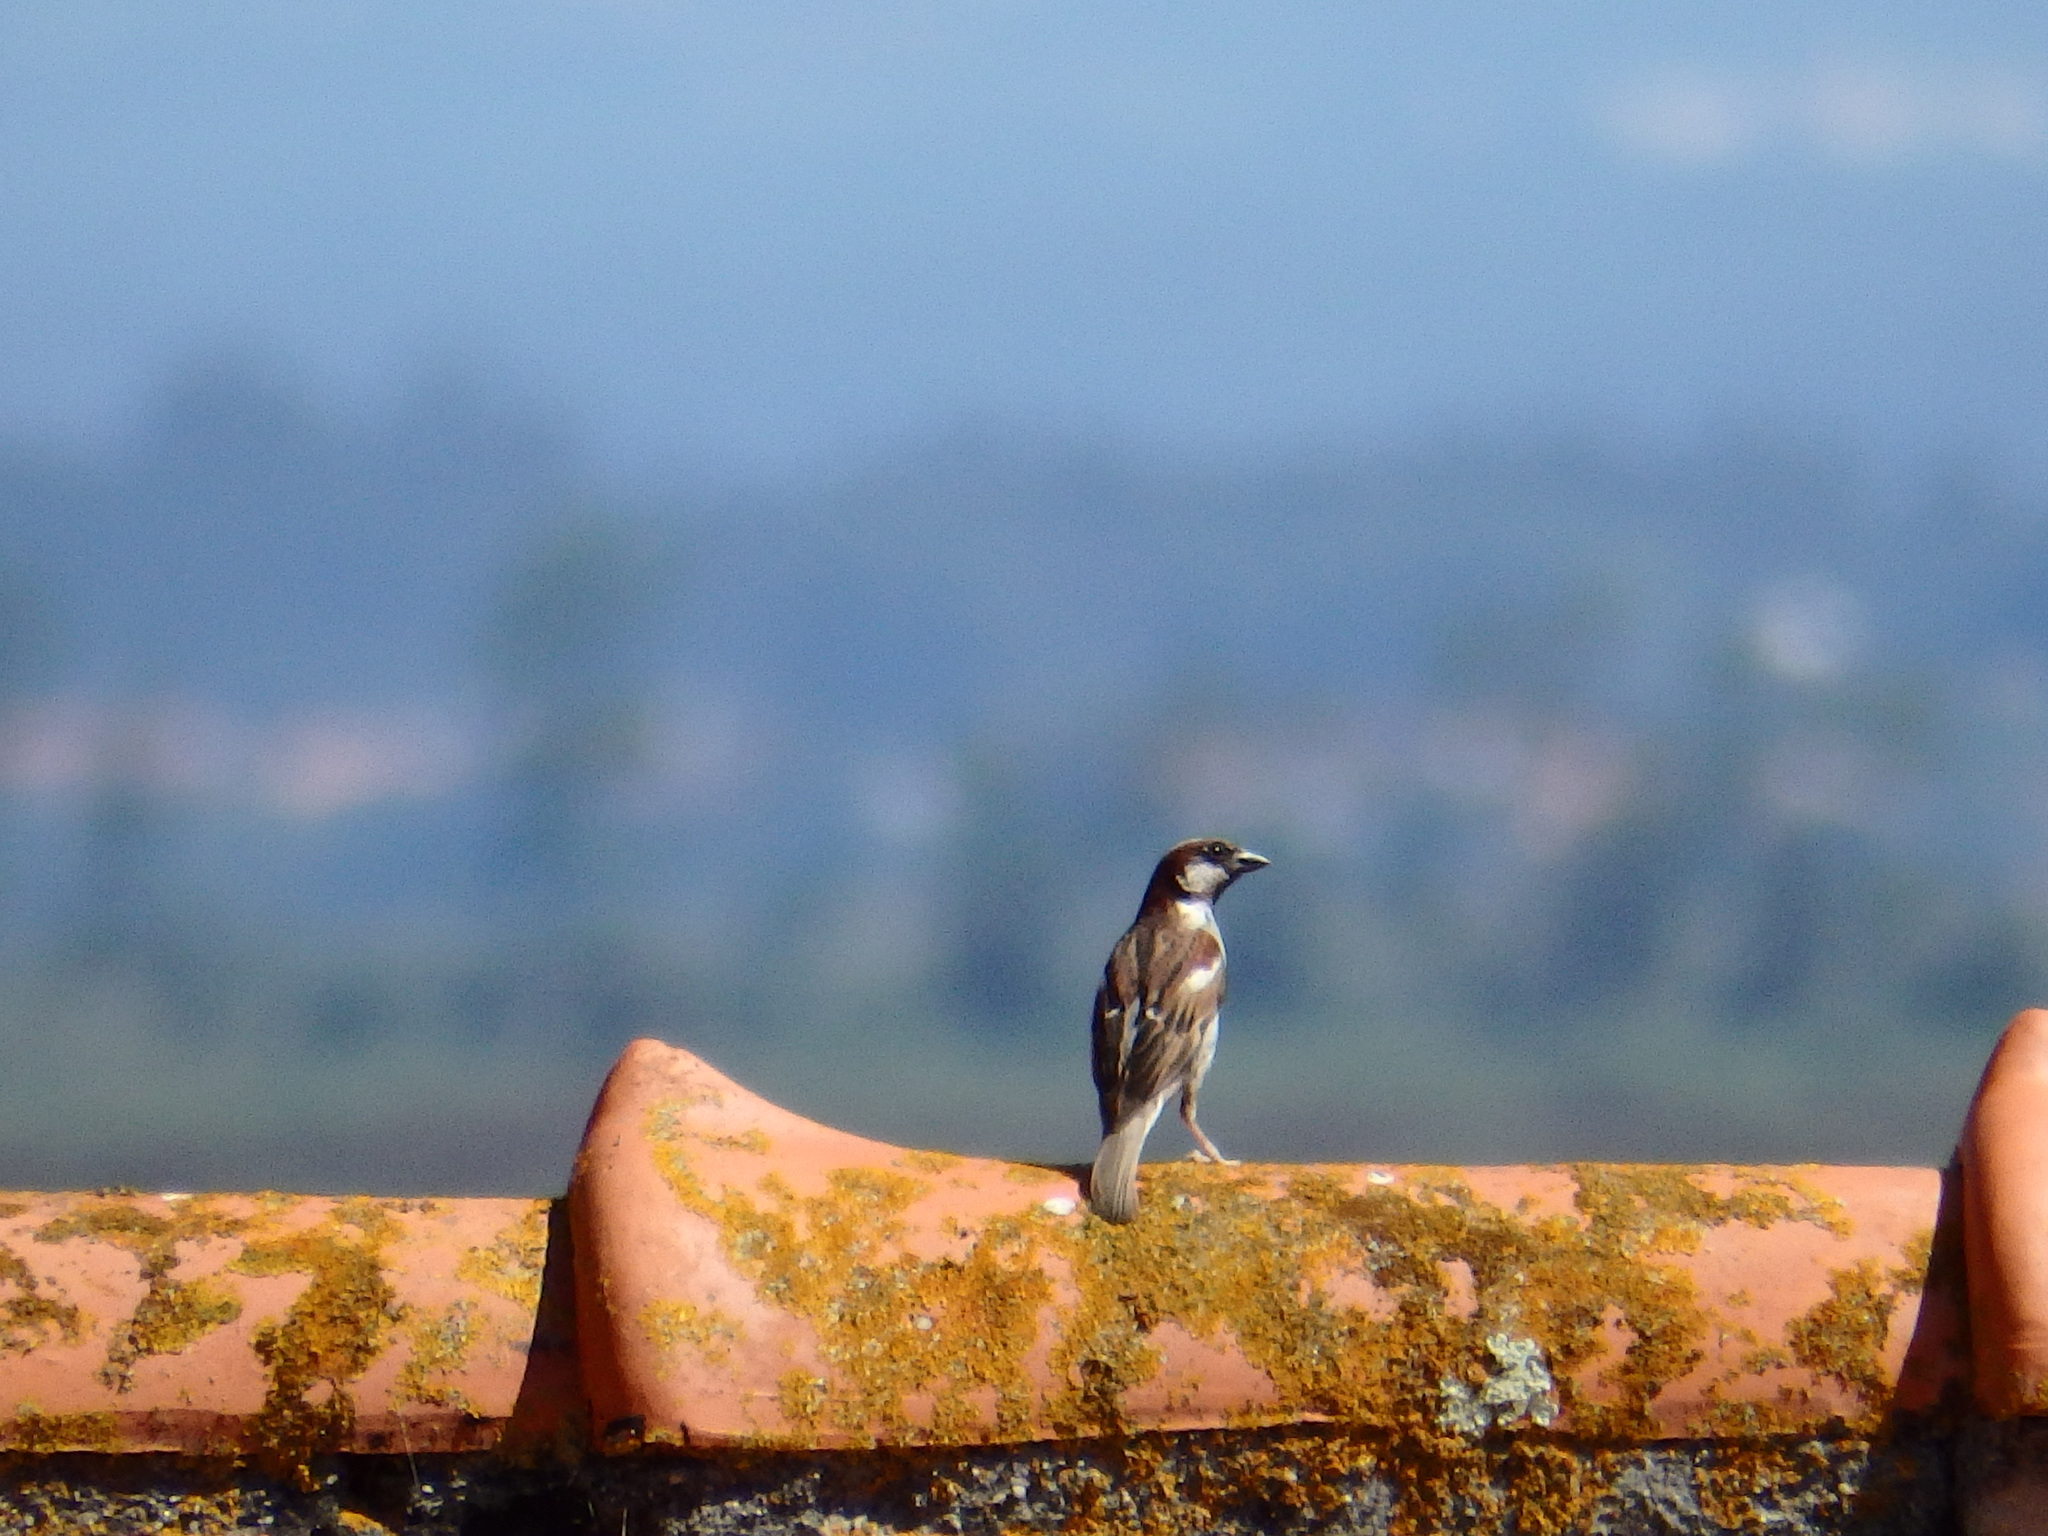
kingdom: Animalia
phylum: Chordata
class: Aves
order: Passeriformes
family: Passeridae
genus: Passer
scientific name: Passer domesticus
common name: House sparrow
